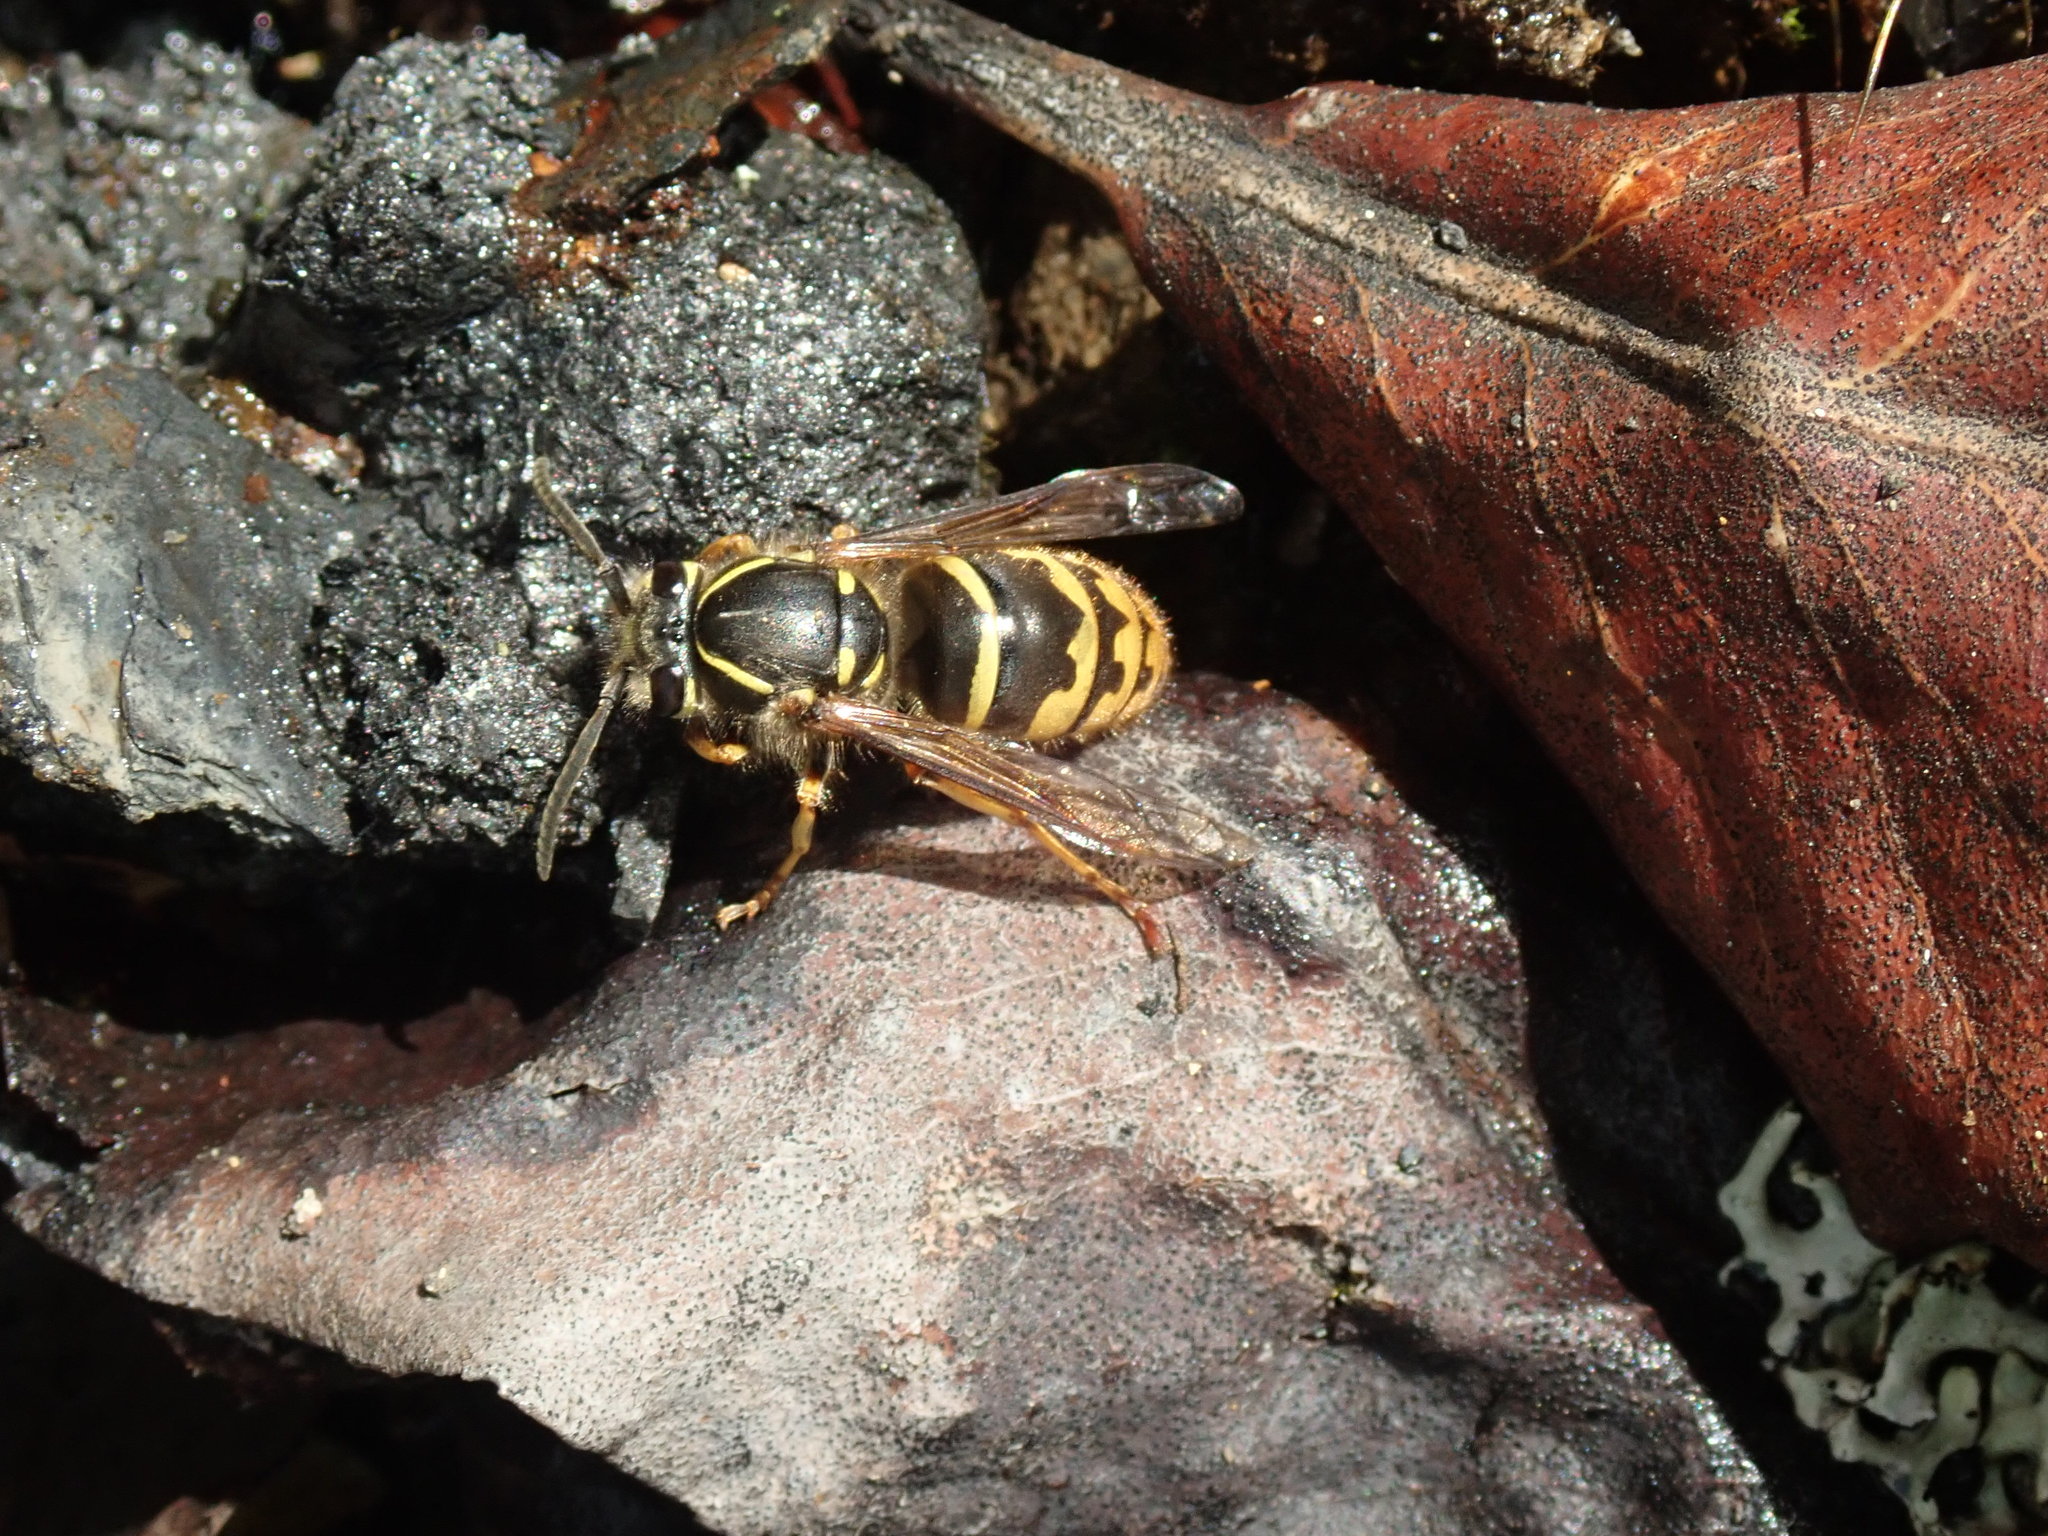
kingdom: Animalia
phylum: Arthropoda
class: Insecta
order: Hymenoptera
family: Vespidae
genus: Vespula
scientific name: Vespula alascensis
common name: Alaska yellowjacket
